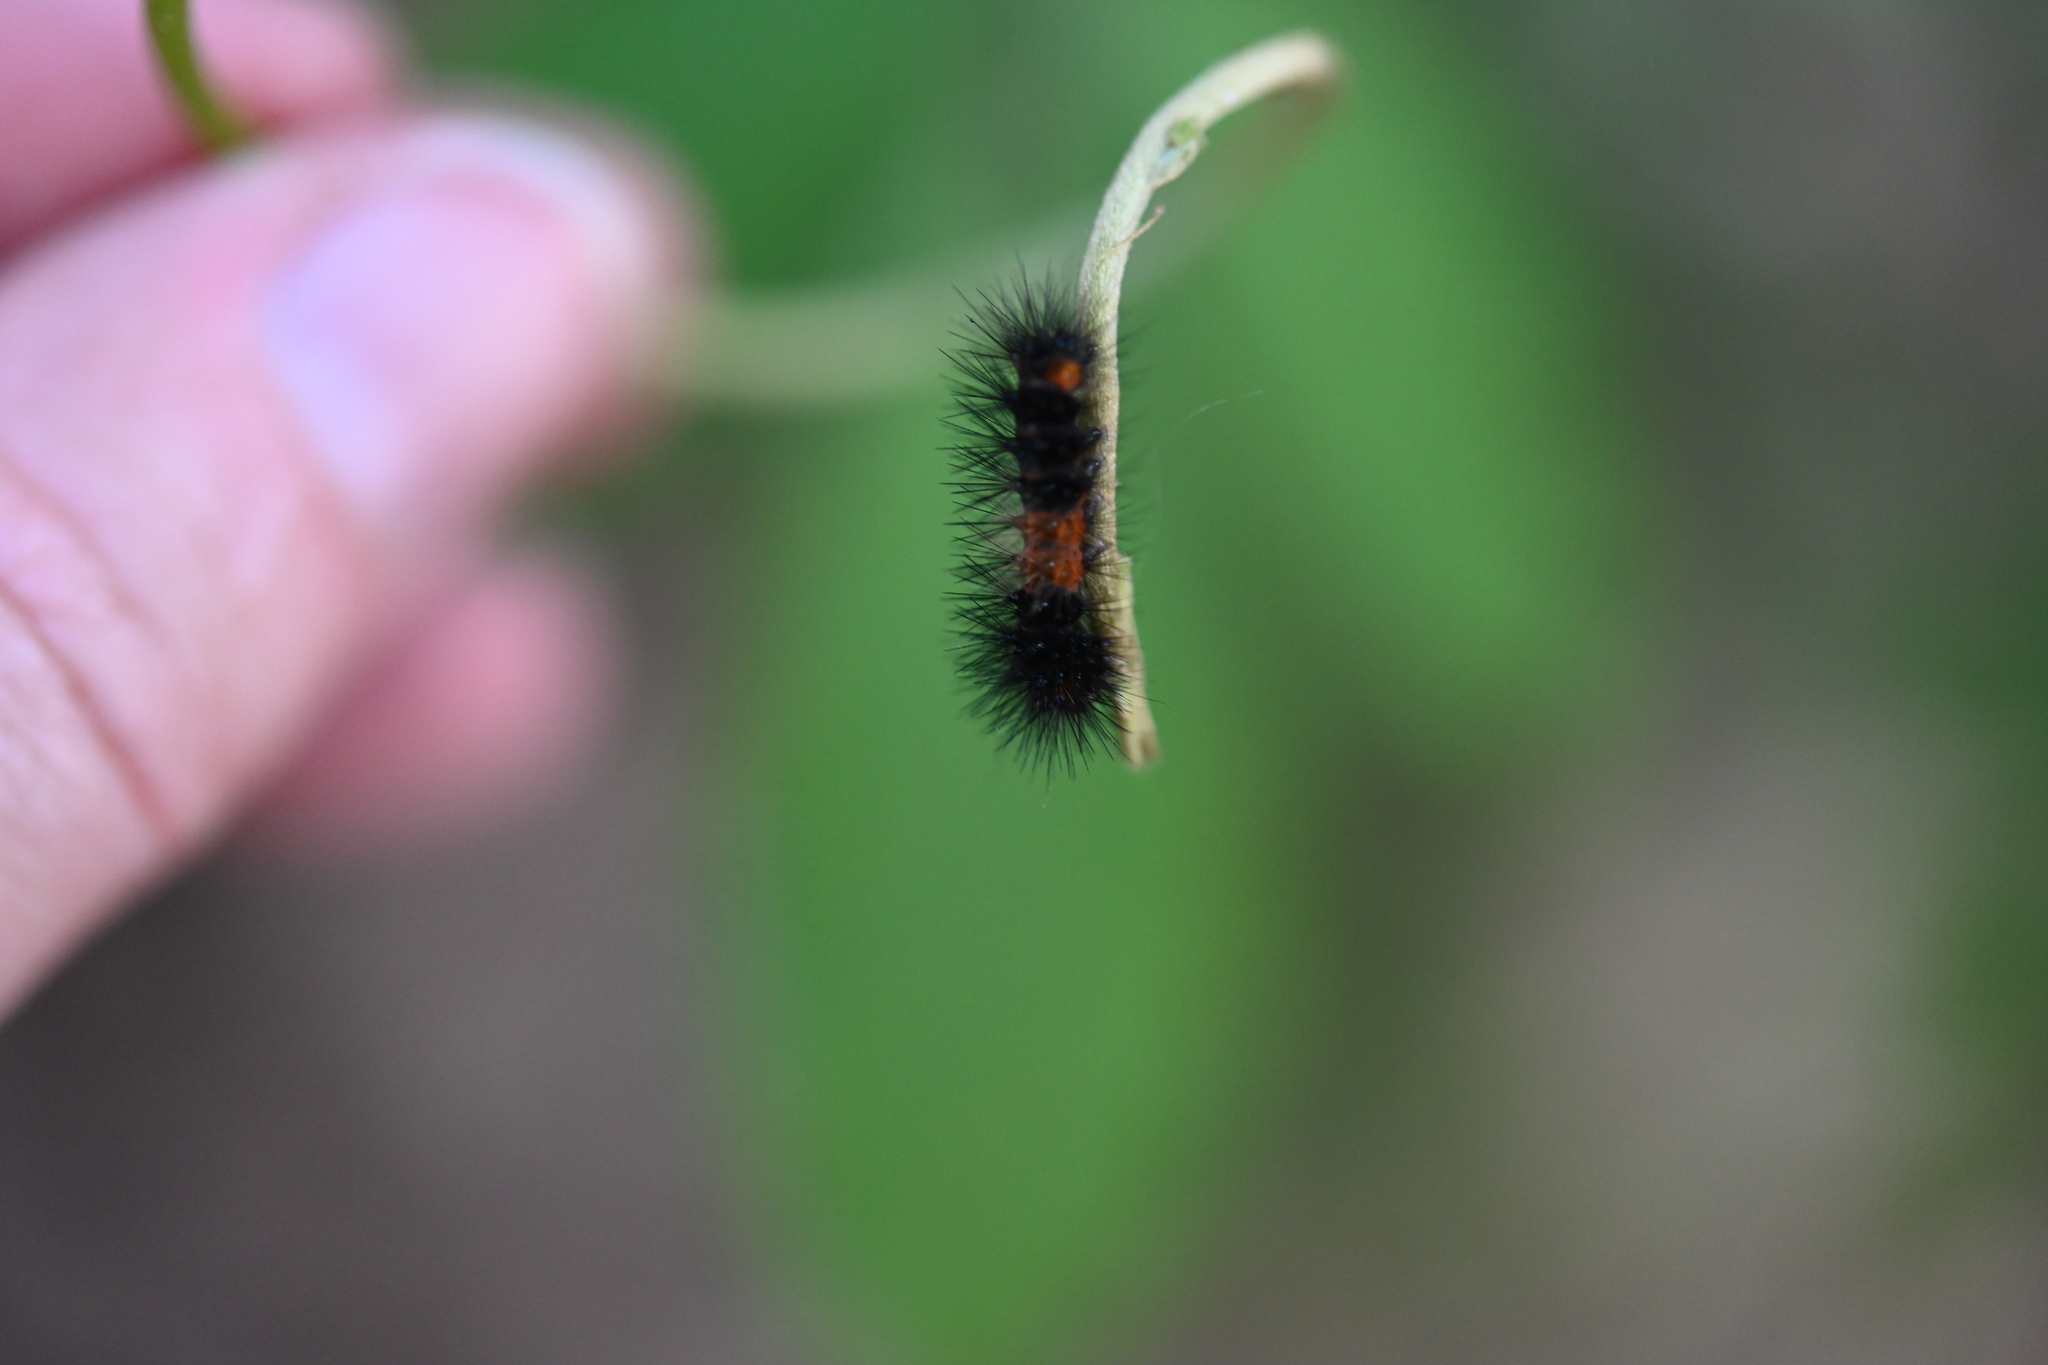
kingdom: Animalia
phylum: Arthropoda
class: Insecta
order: Lepidoptera
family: Erebidae
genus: Hypercompe
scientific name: Hypercompe scribonia
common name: Giant leopard moth
